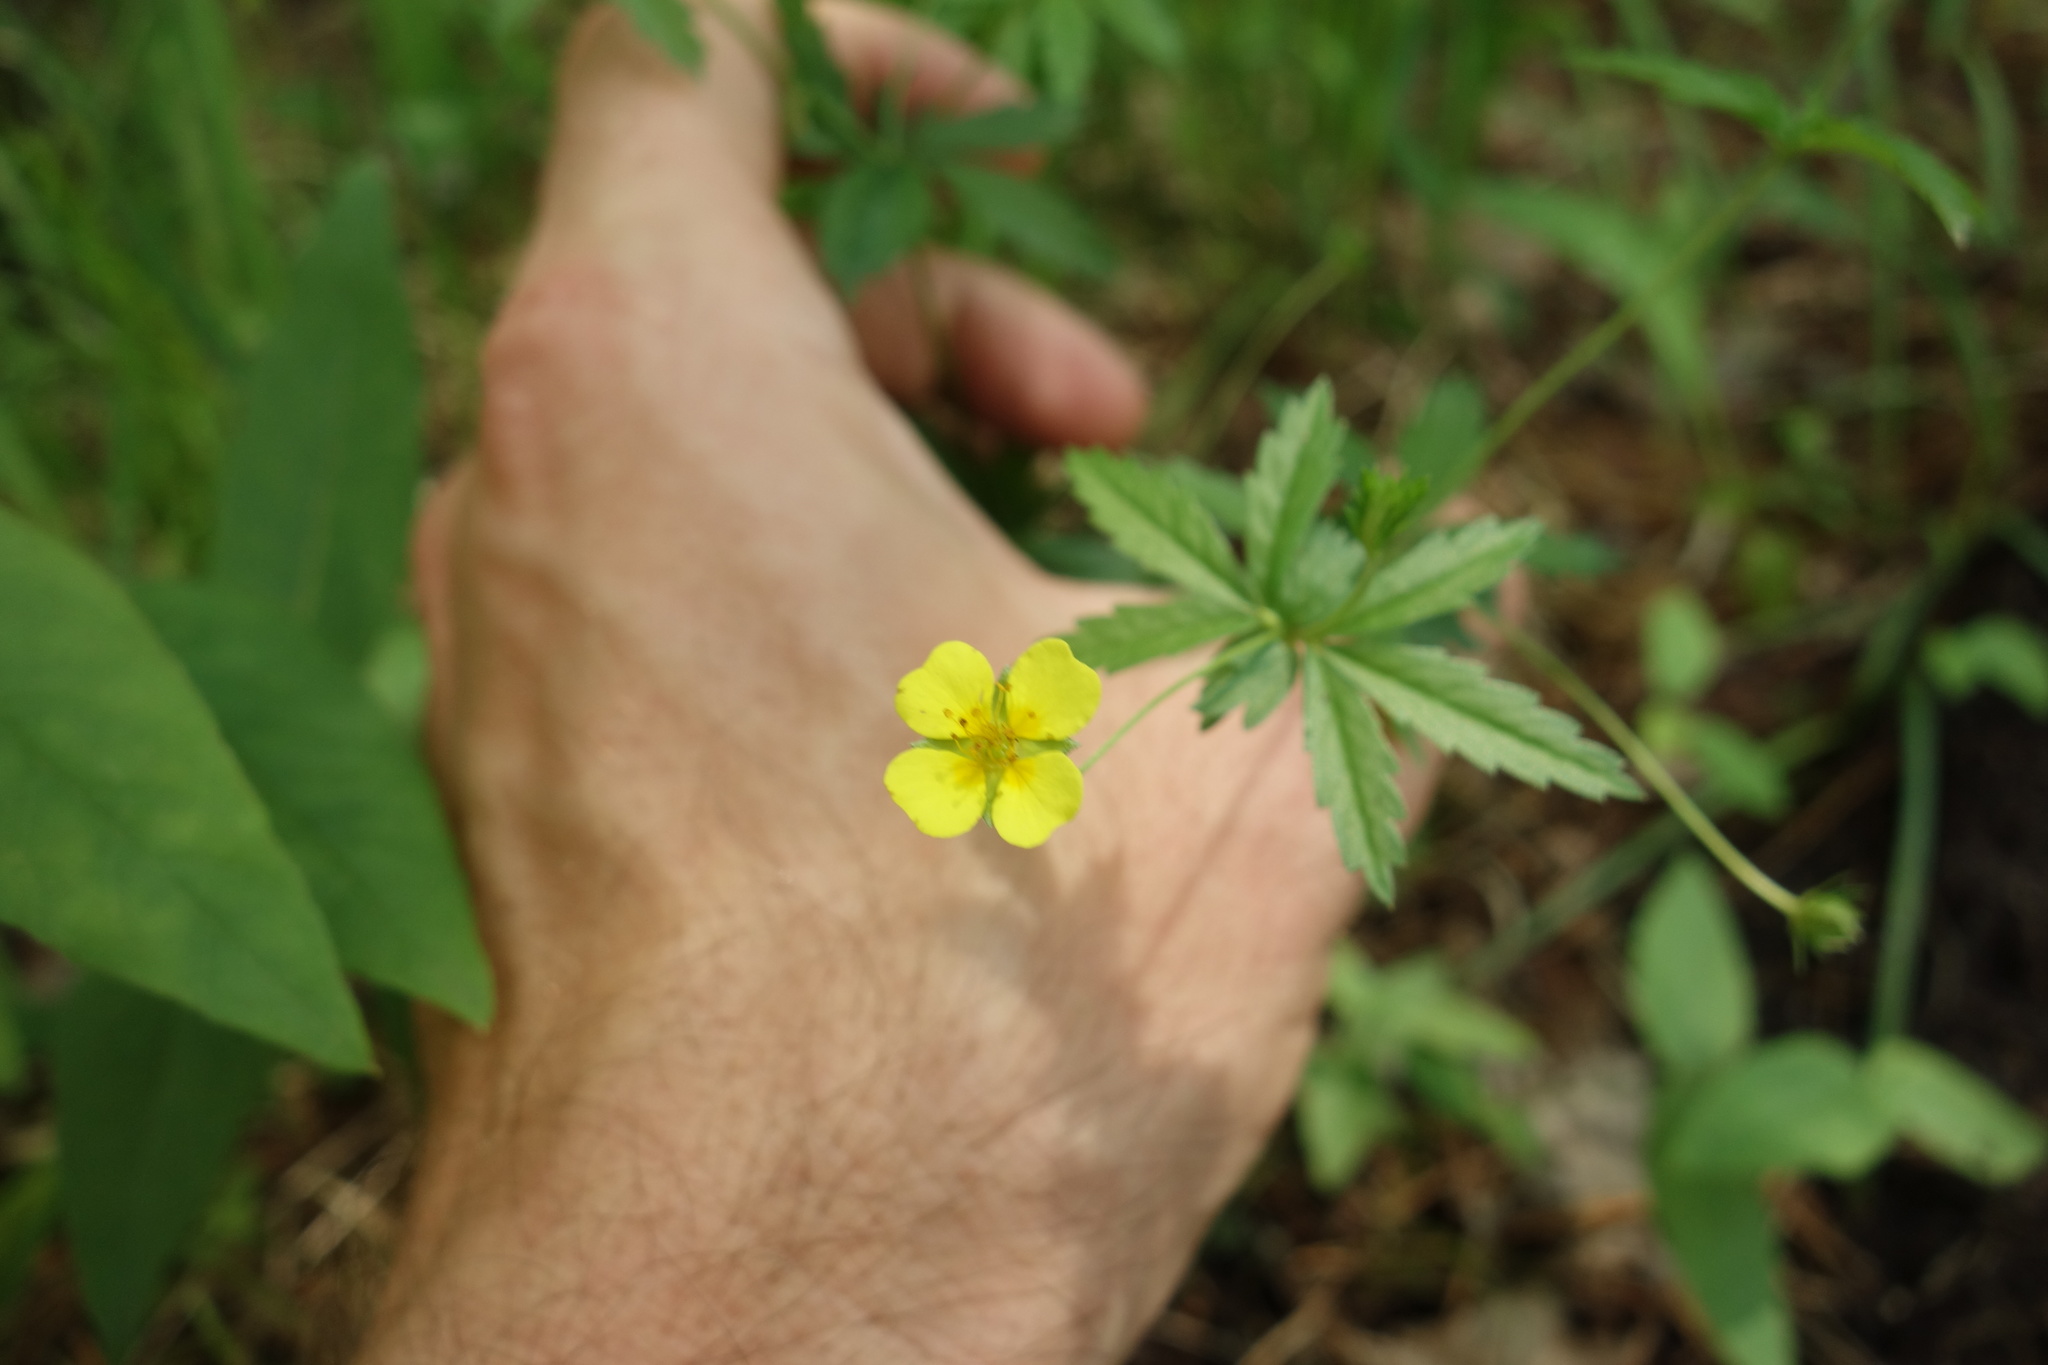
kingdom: Plantae
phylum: Tracheophyta
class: Magnoliopsida
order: Rosales
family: Rosaceae
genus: Potentilla
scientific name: Potentilla erecta
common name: Tormentil
